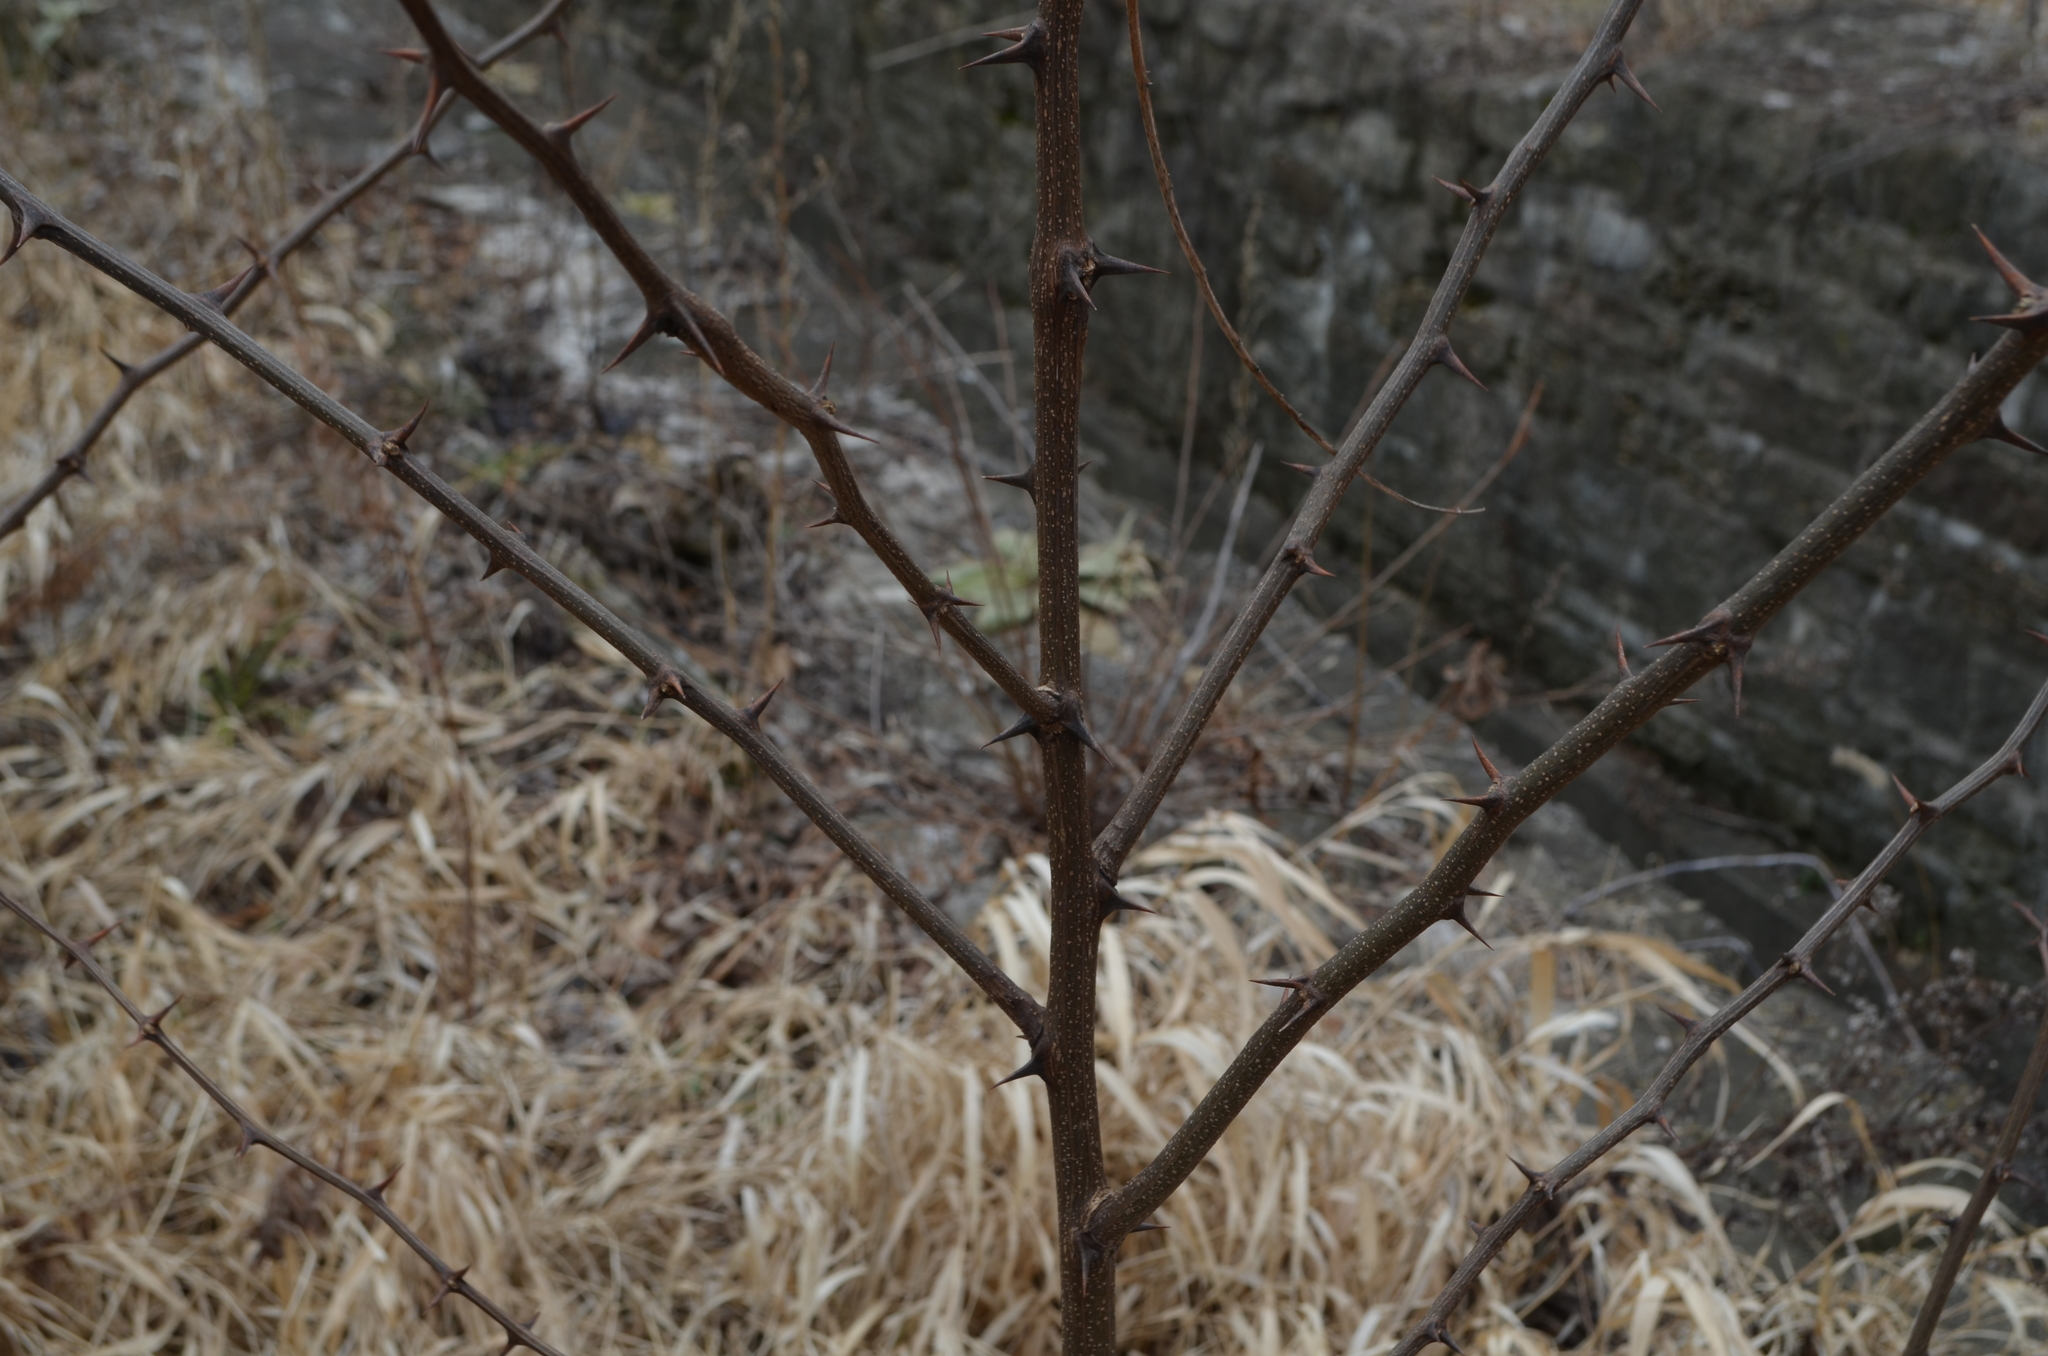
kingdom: Plantae
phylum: Tracheophyta
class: Magnoliopsida
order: Fabales
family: Fabaceae
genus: Robinia
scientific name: Robinia pseudoacacia
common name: Black locust
